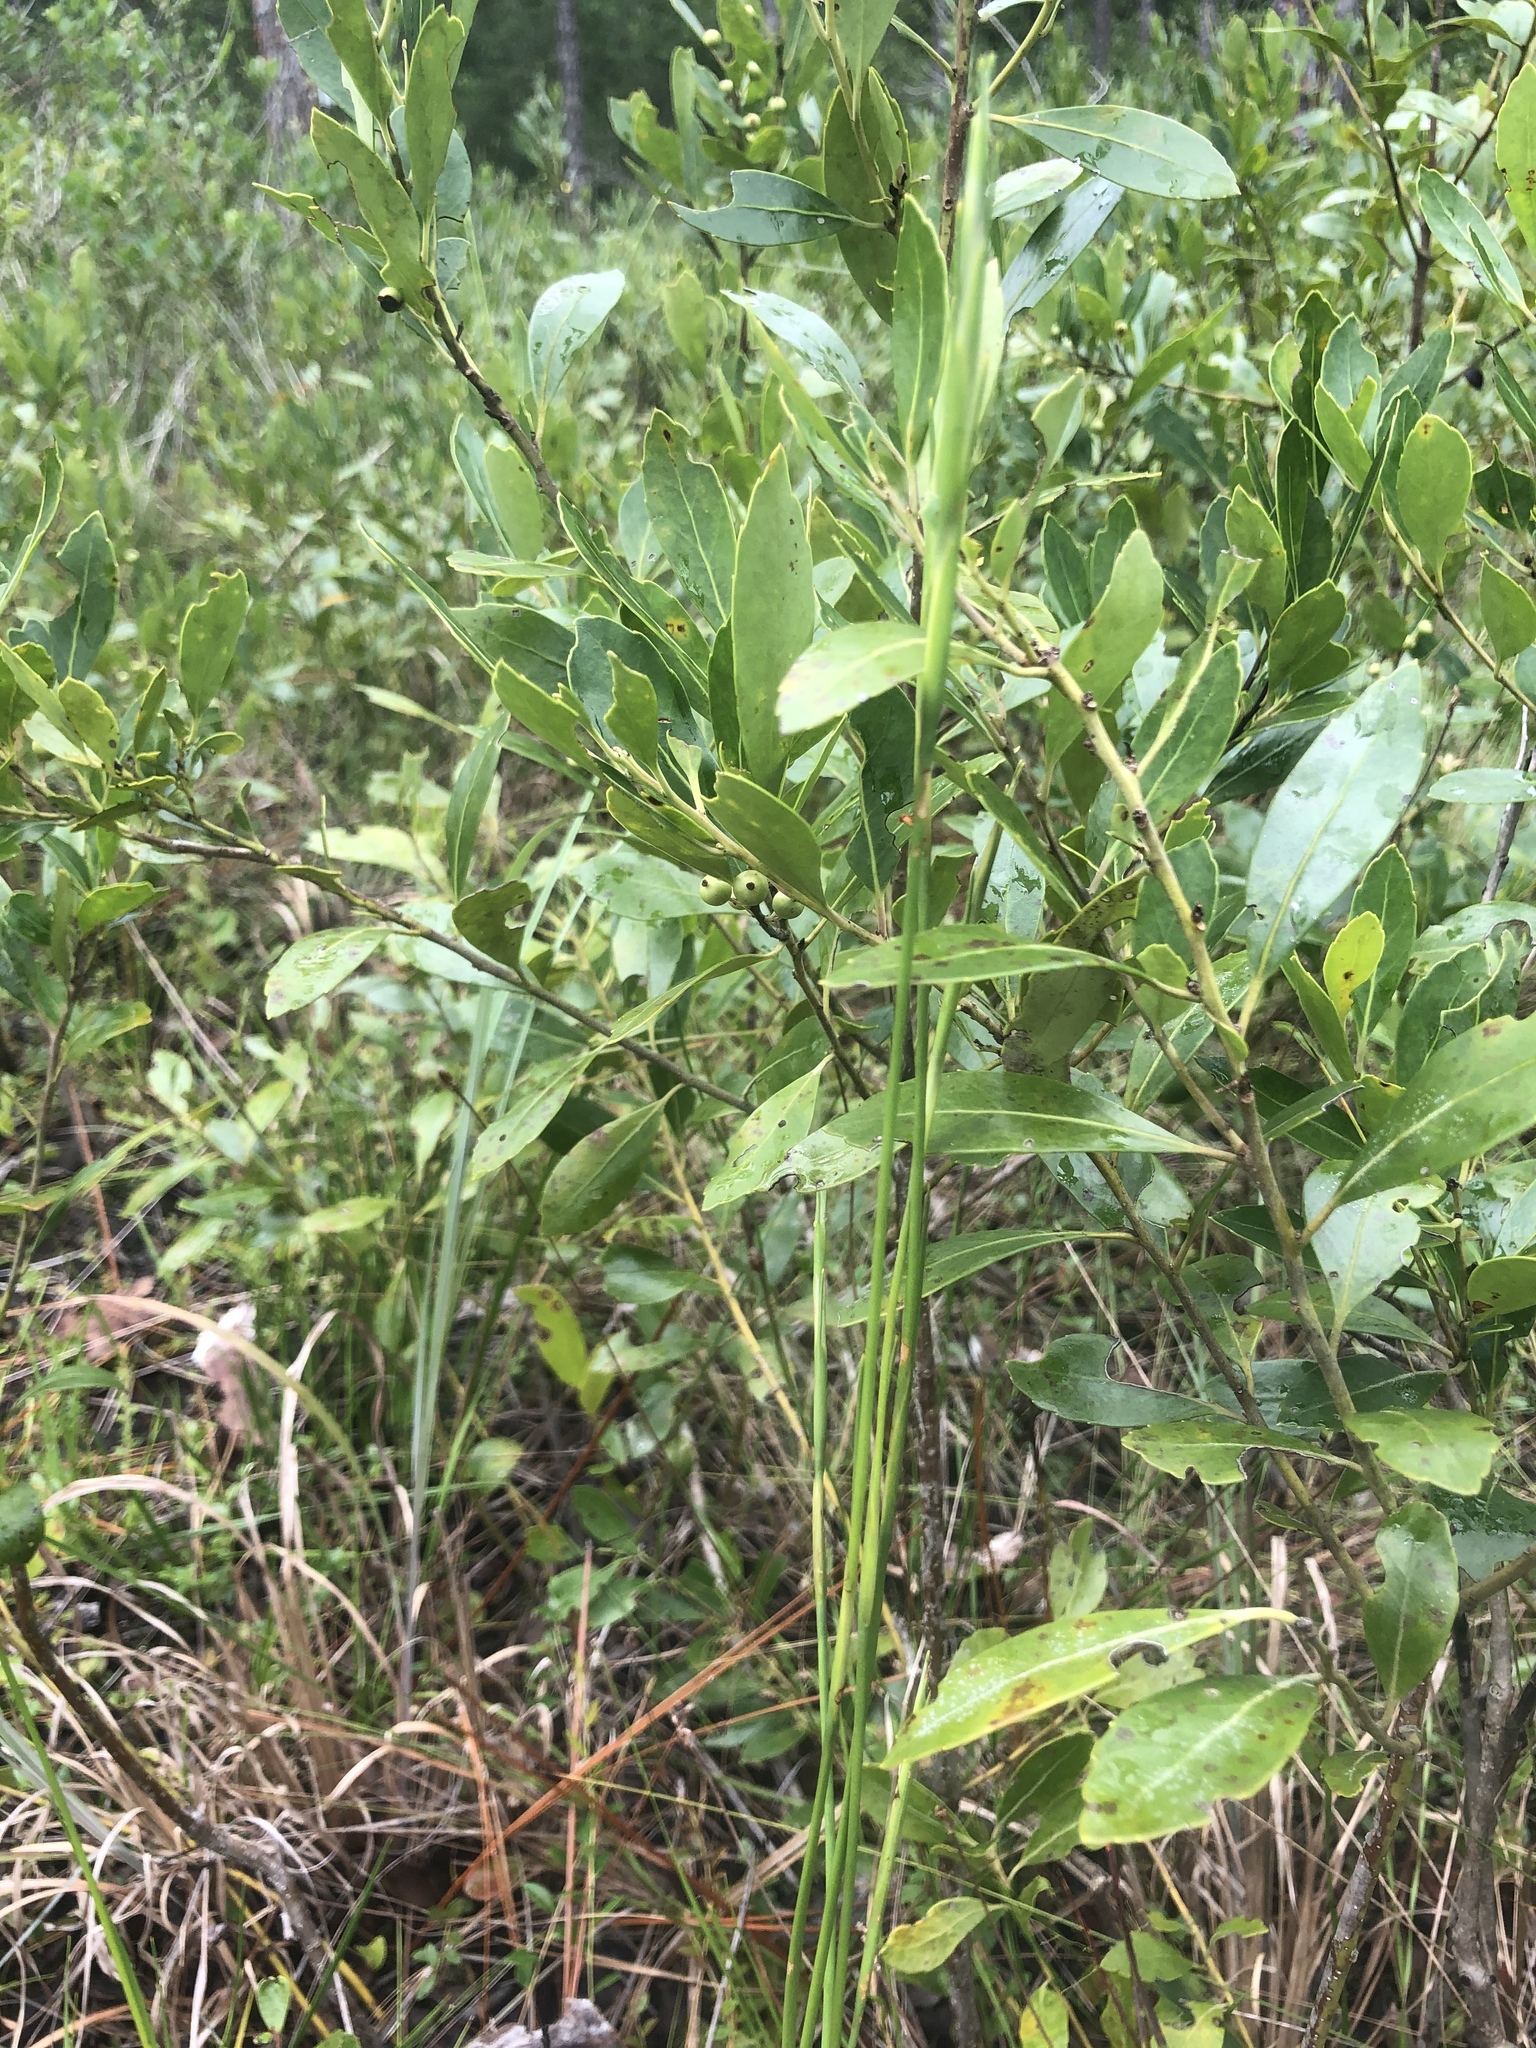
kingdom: Plantae
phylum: Tracheophyta
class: Liliopsida
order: Alismatales
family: Tofieldiaceae
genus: Pleea
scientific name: Pleea tenuifolia
